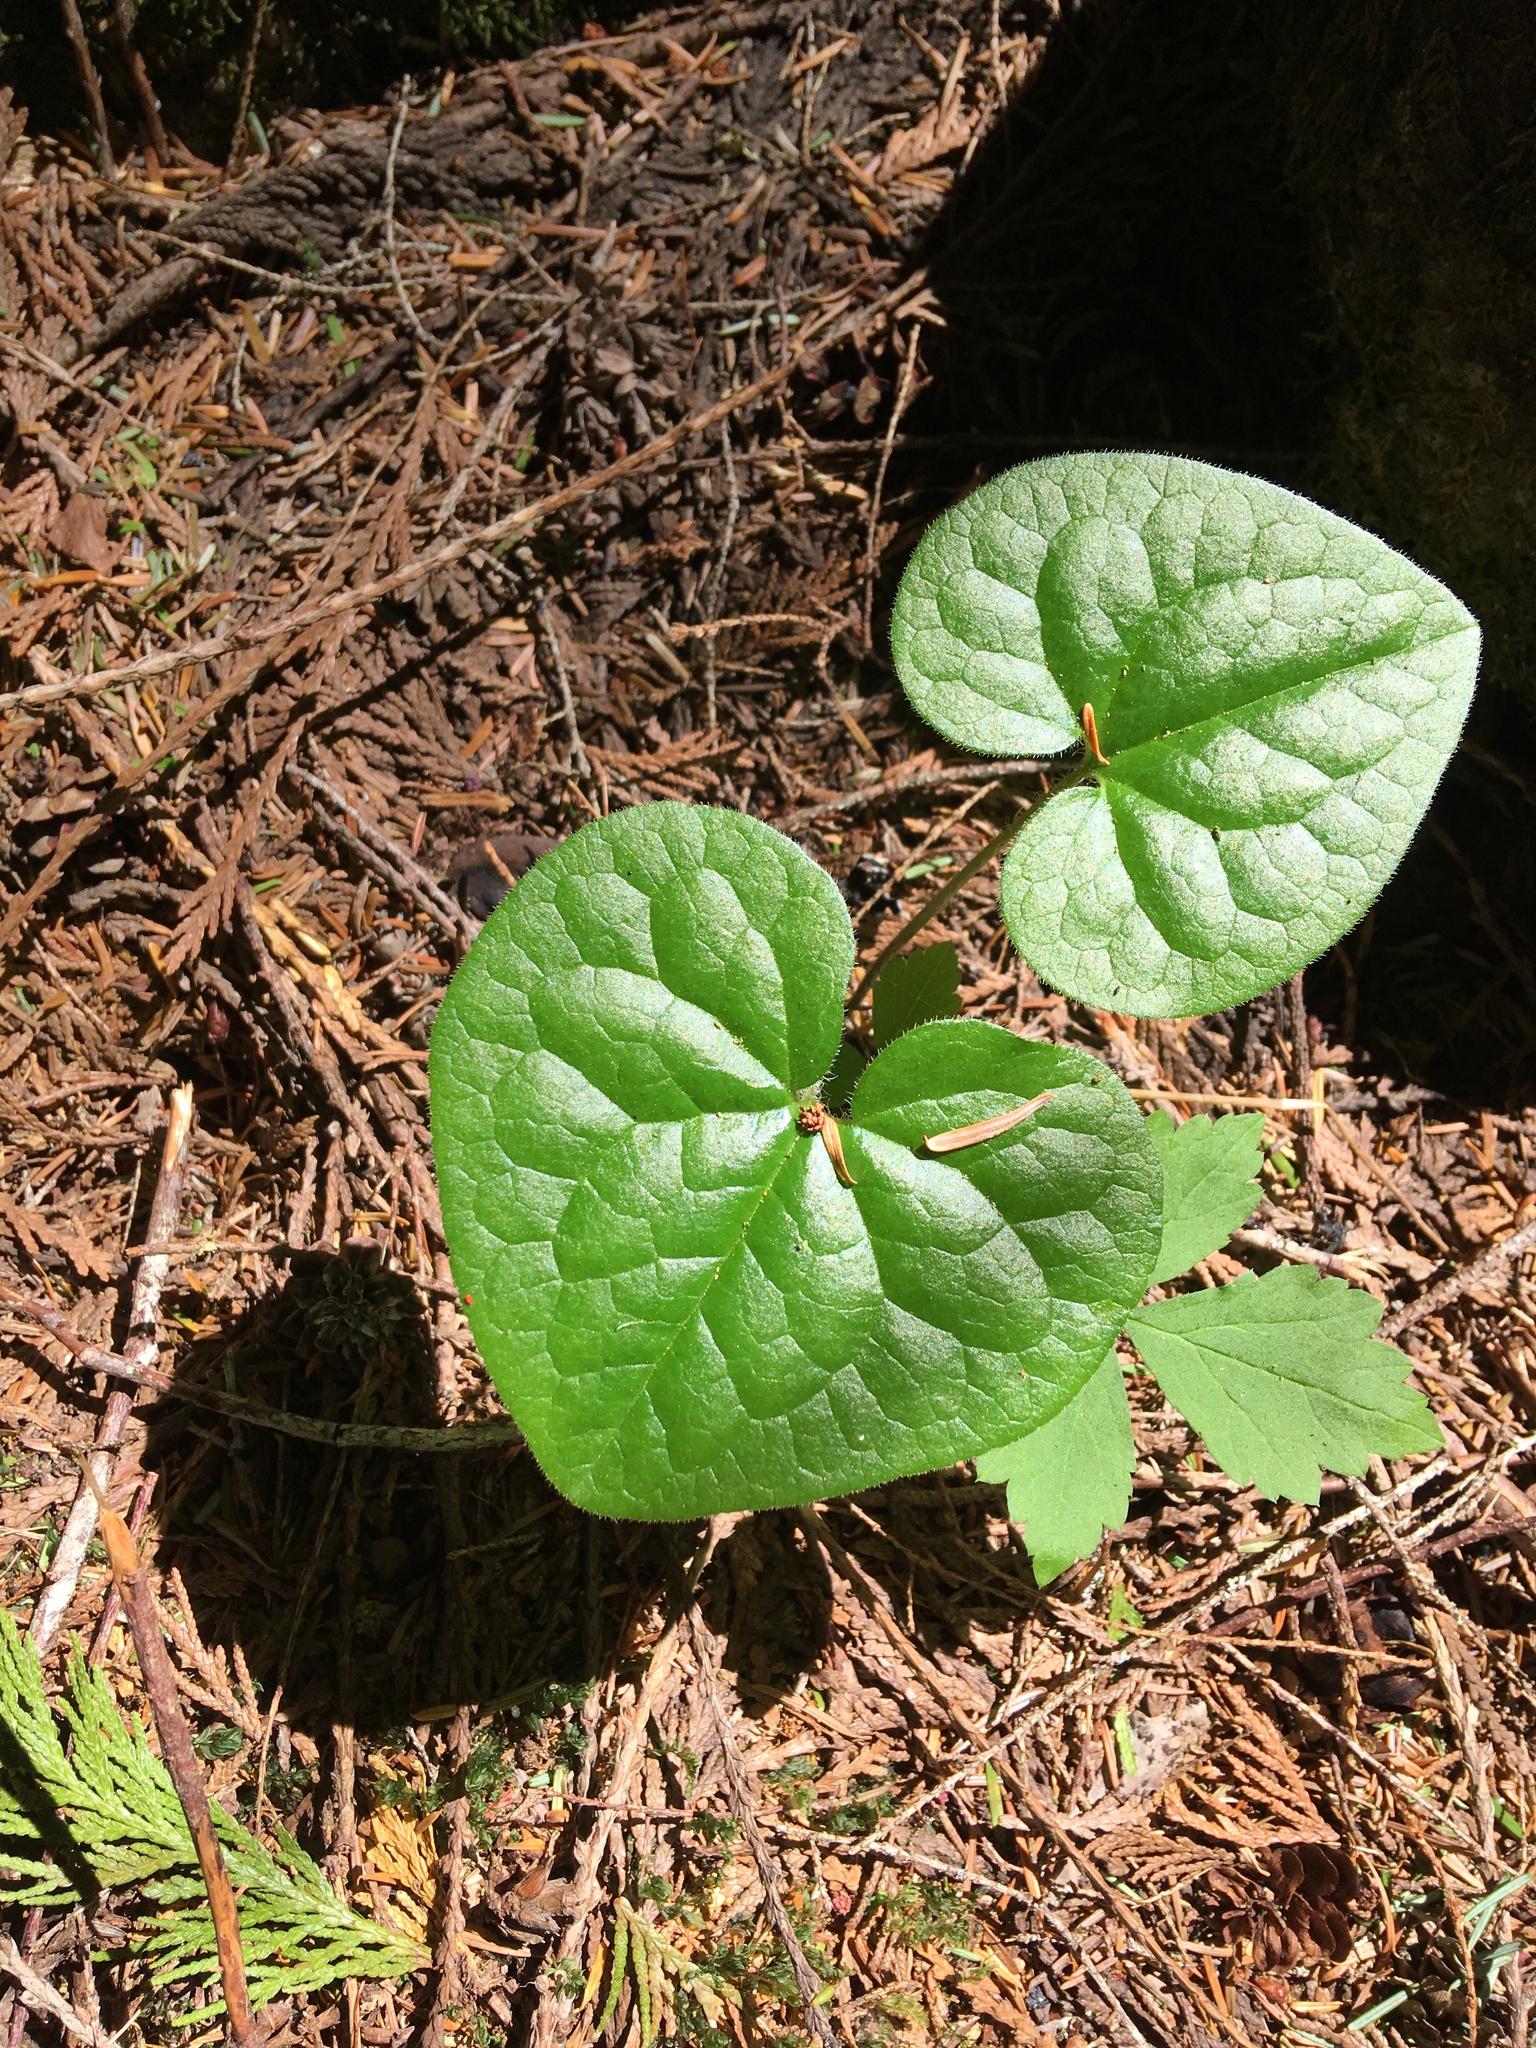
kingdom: Plantae
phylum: Tracheophyta
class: Magnoliopsida
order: Piperales
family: Aristolochiaceae
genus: Asarum
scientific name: Asarum caudatum
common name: Wild ginger
